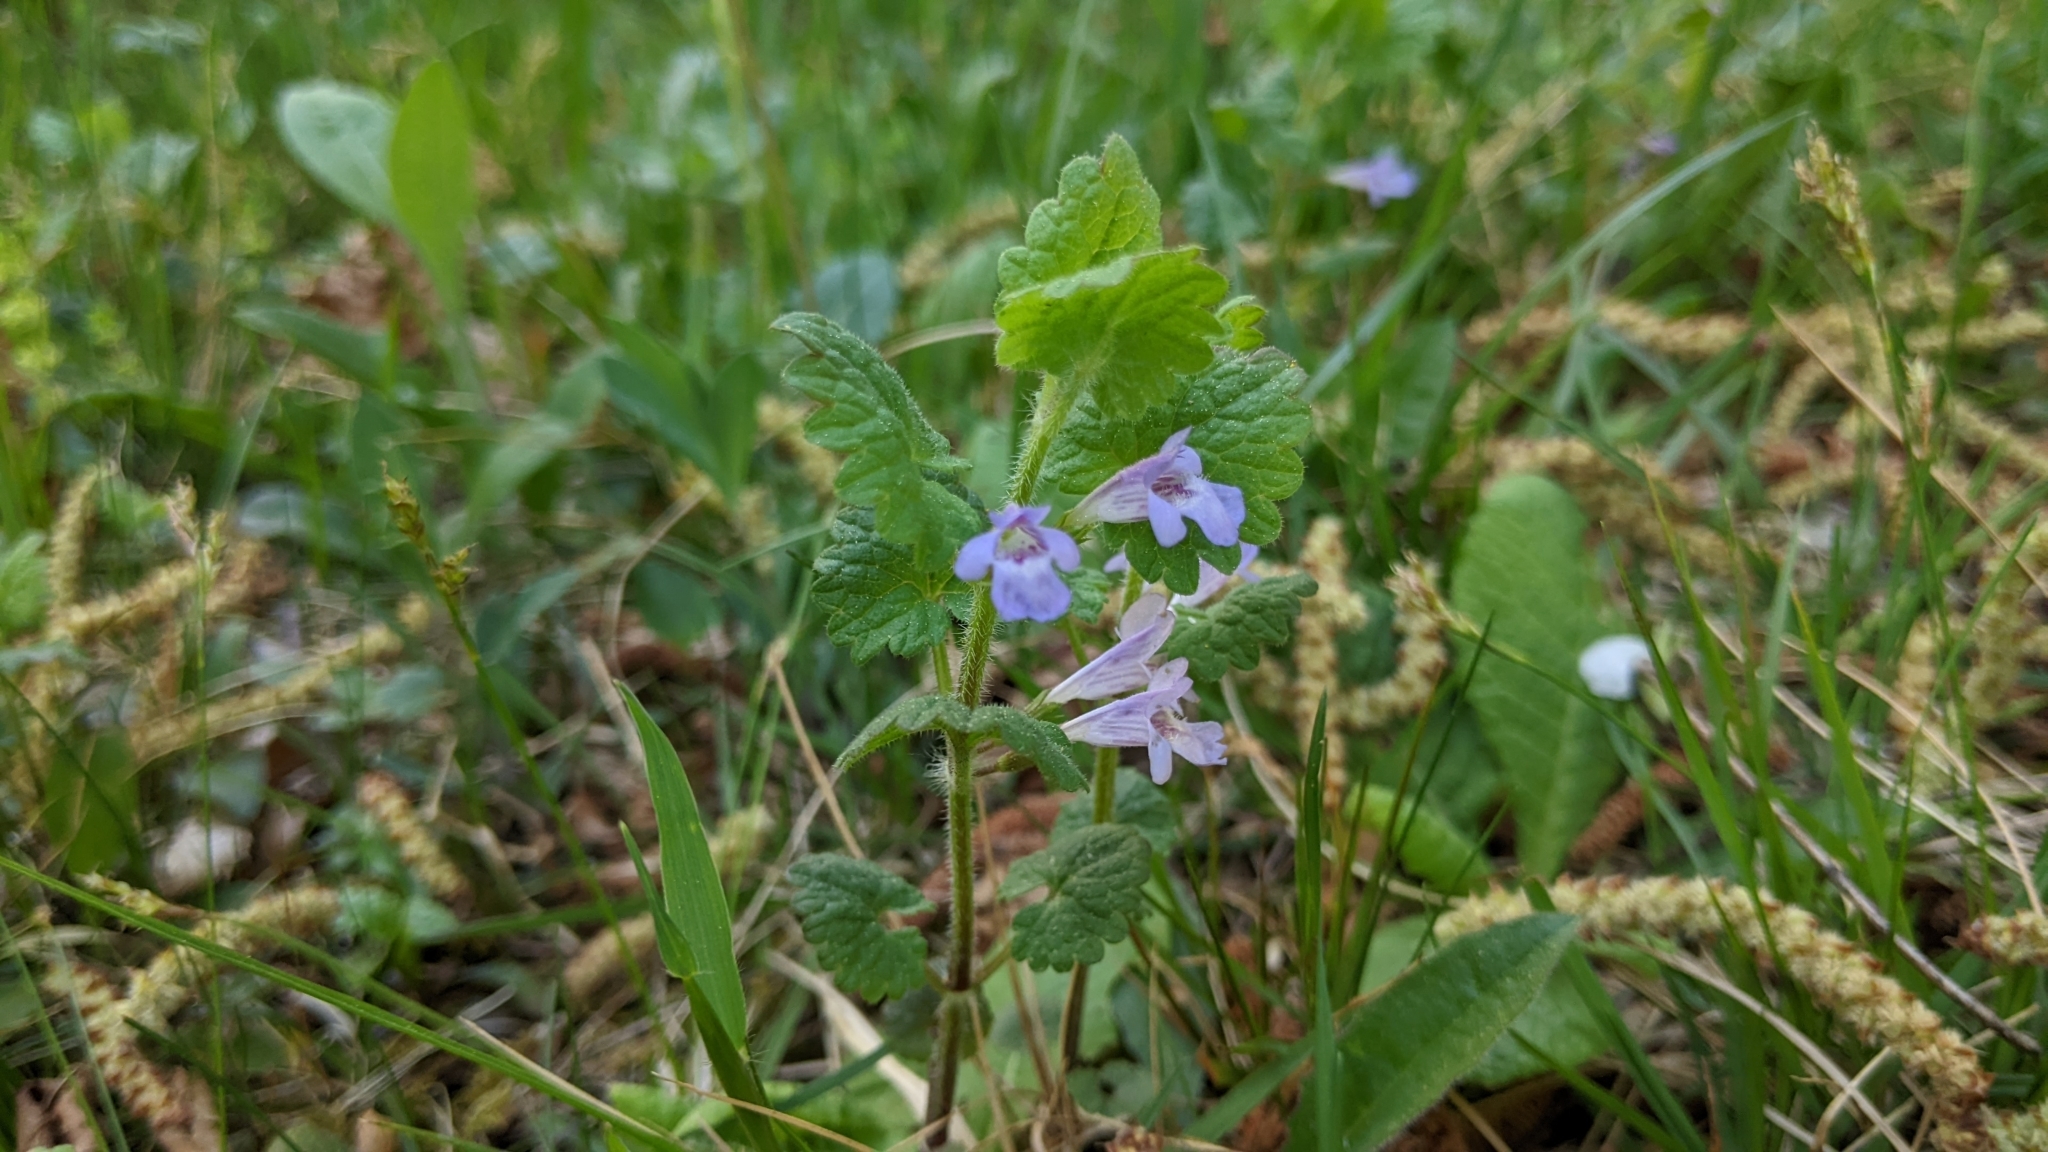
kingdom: Plantae
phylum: Tracheophyta
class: Magnoliopsida
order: Lamiales
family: Lamiaceae
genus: Glechoma
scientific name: Glechoma hederacea
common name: Ground ivy
